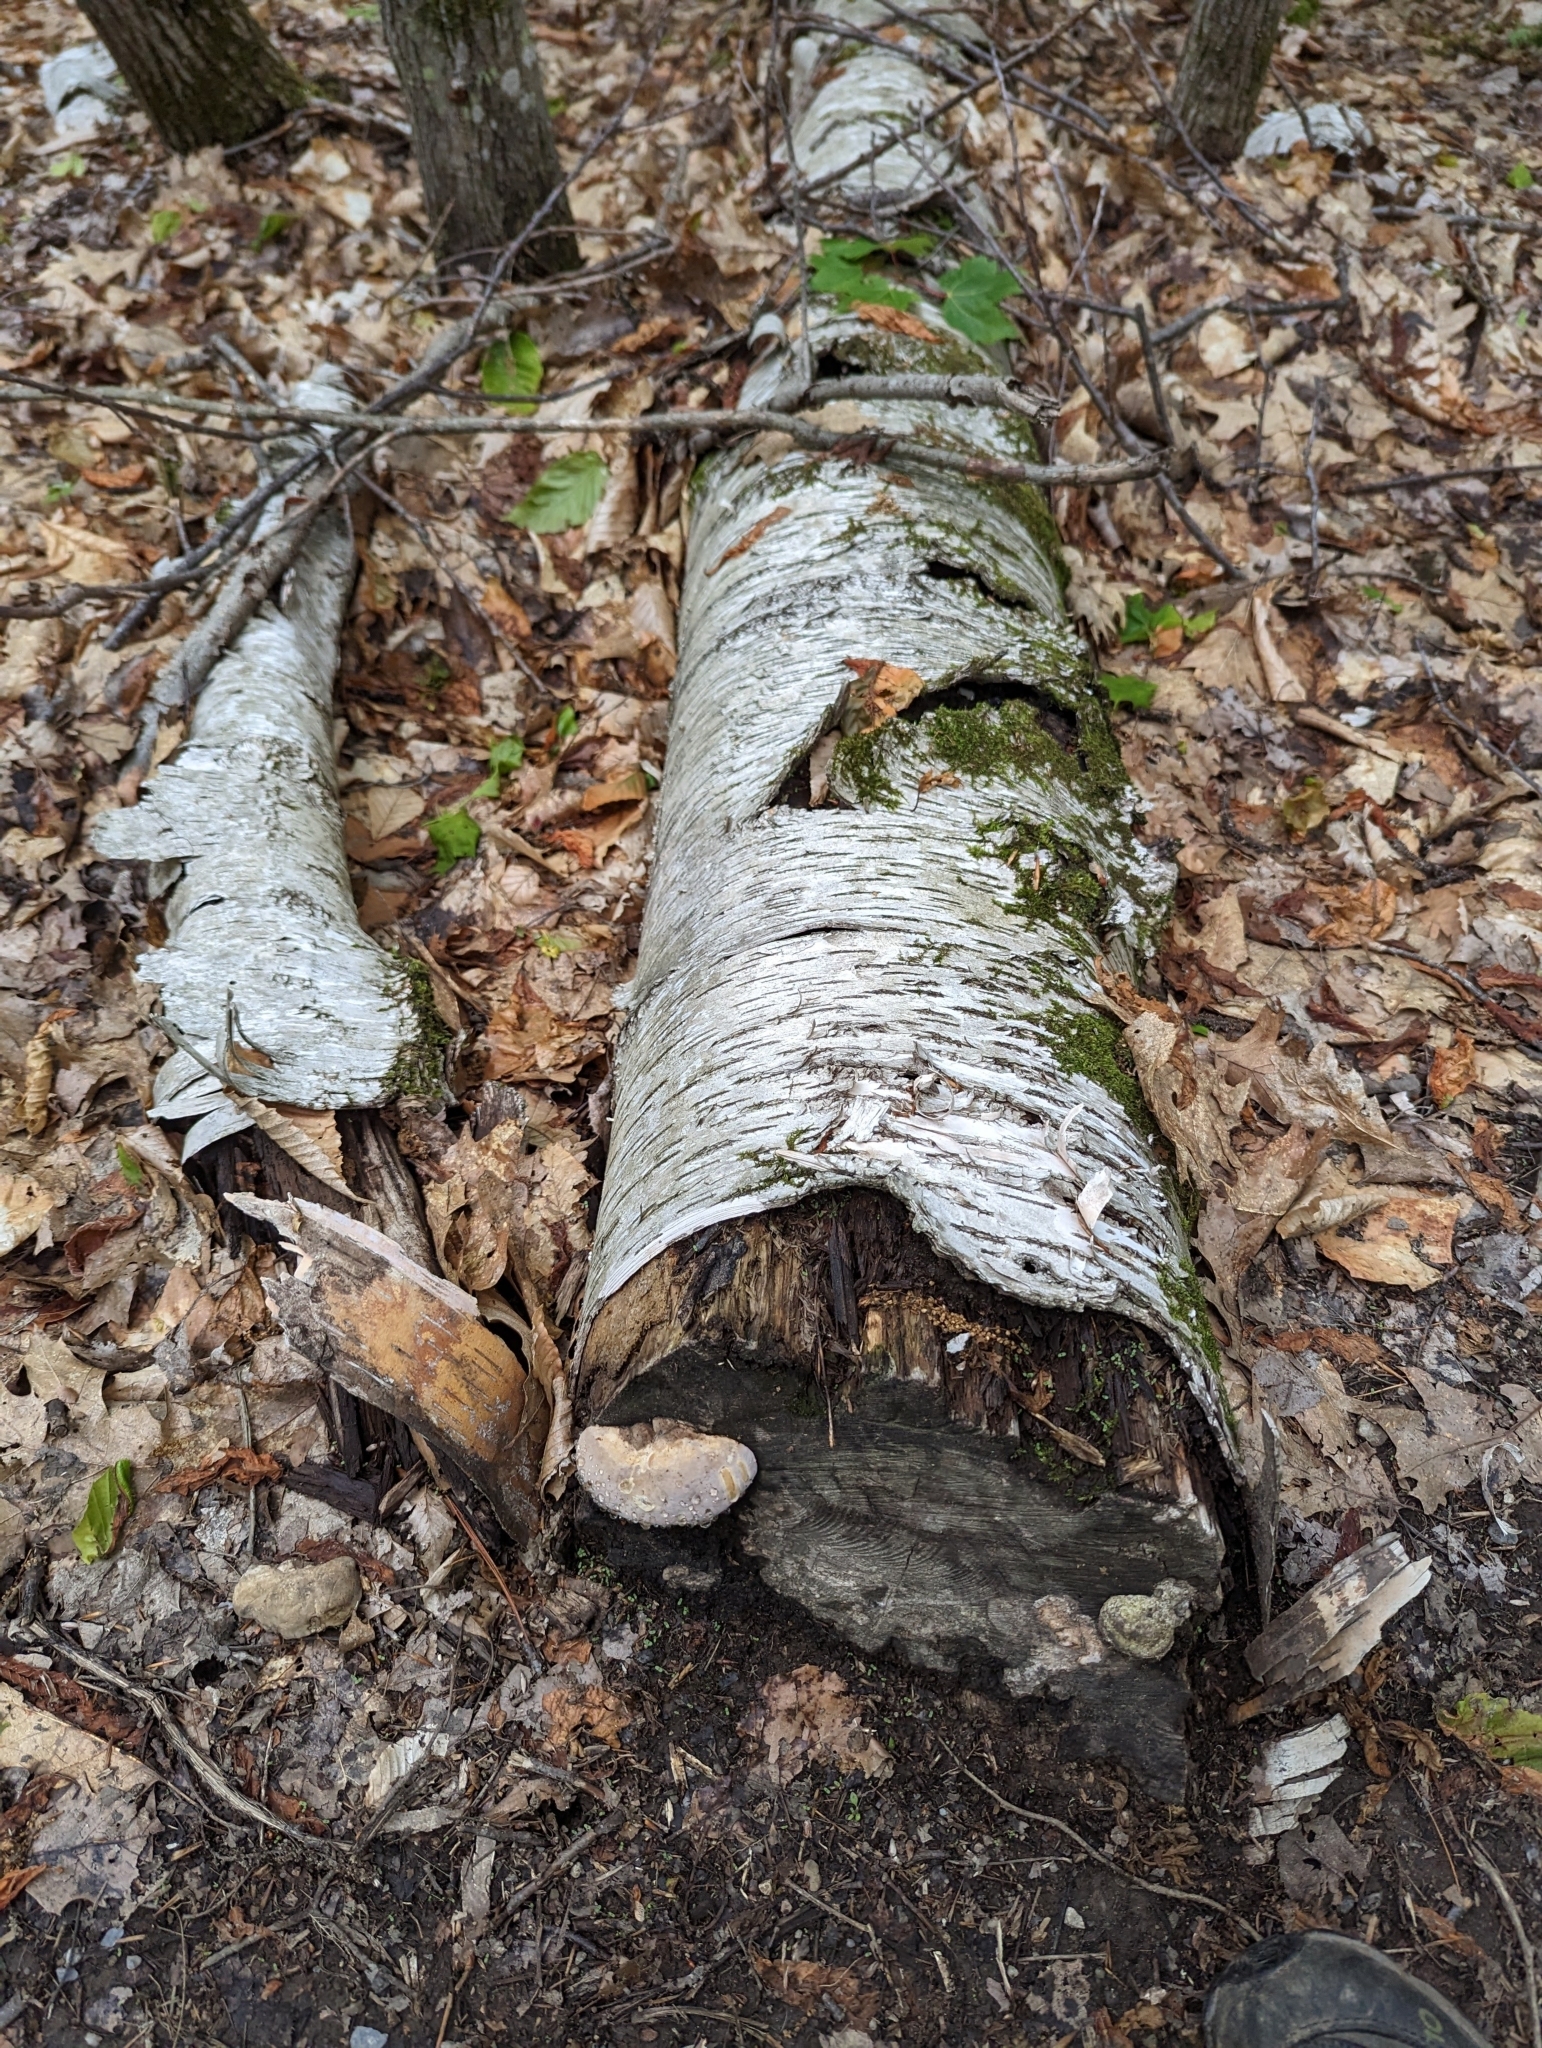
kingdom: Plantae
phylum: Tracheophyta
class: Magnoliopsida
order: Fagales
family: Betulaceae
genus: Betula
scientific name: Betula papyrifera
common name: Paper birch
